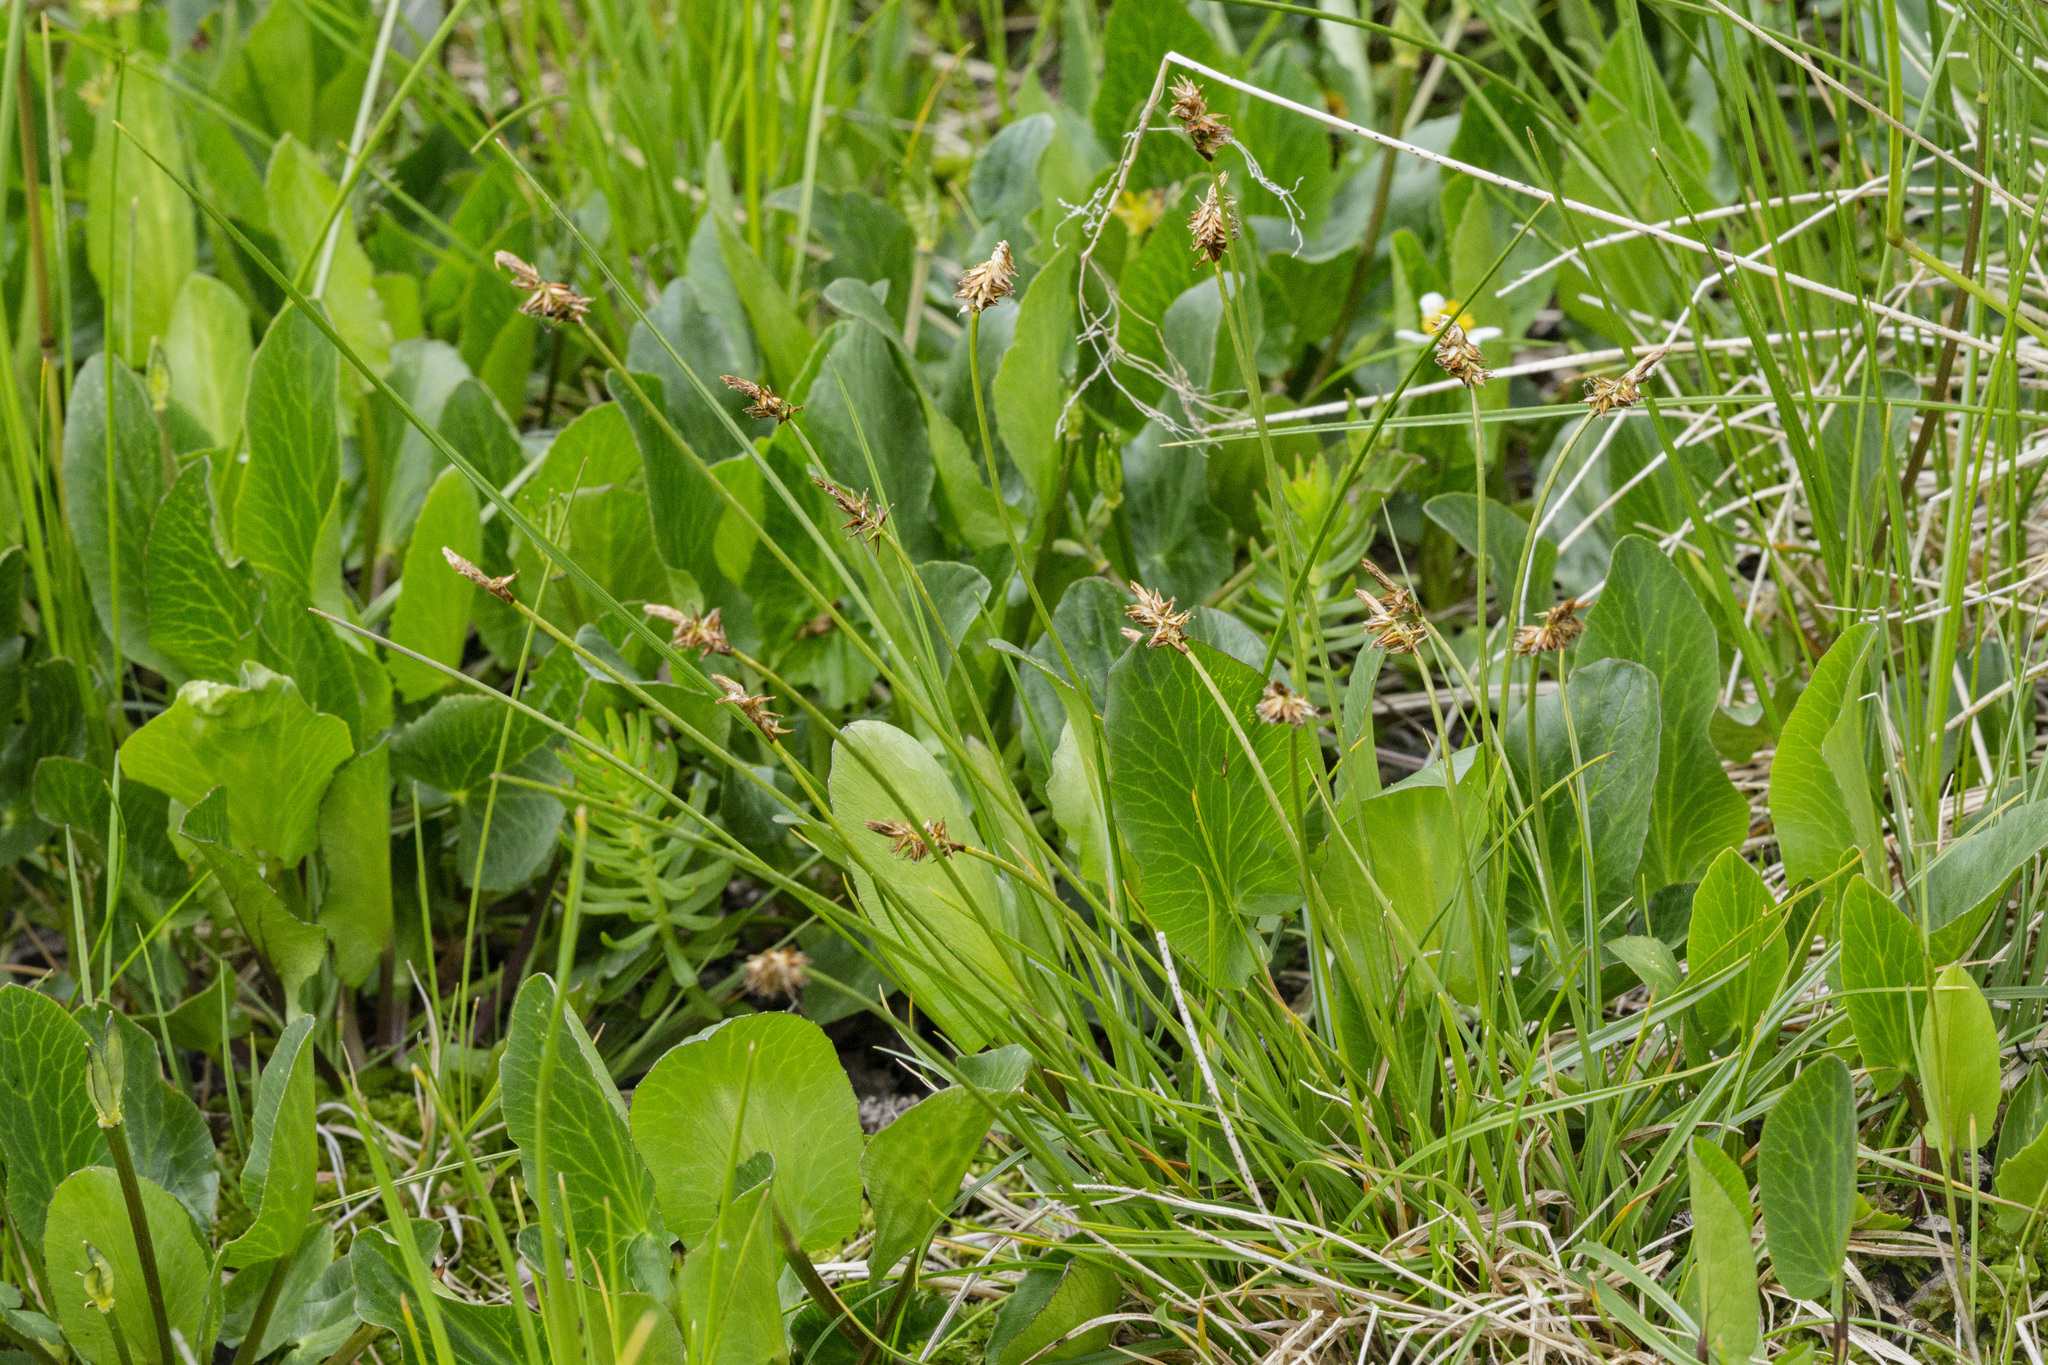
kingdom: Plantae
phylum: Tracheophyta
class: Liliopsida
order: Poales
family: Cyperaceae
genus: Carex
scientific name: Carex nigricans
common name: Black alpine sedge
